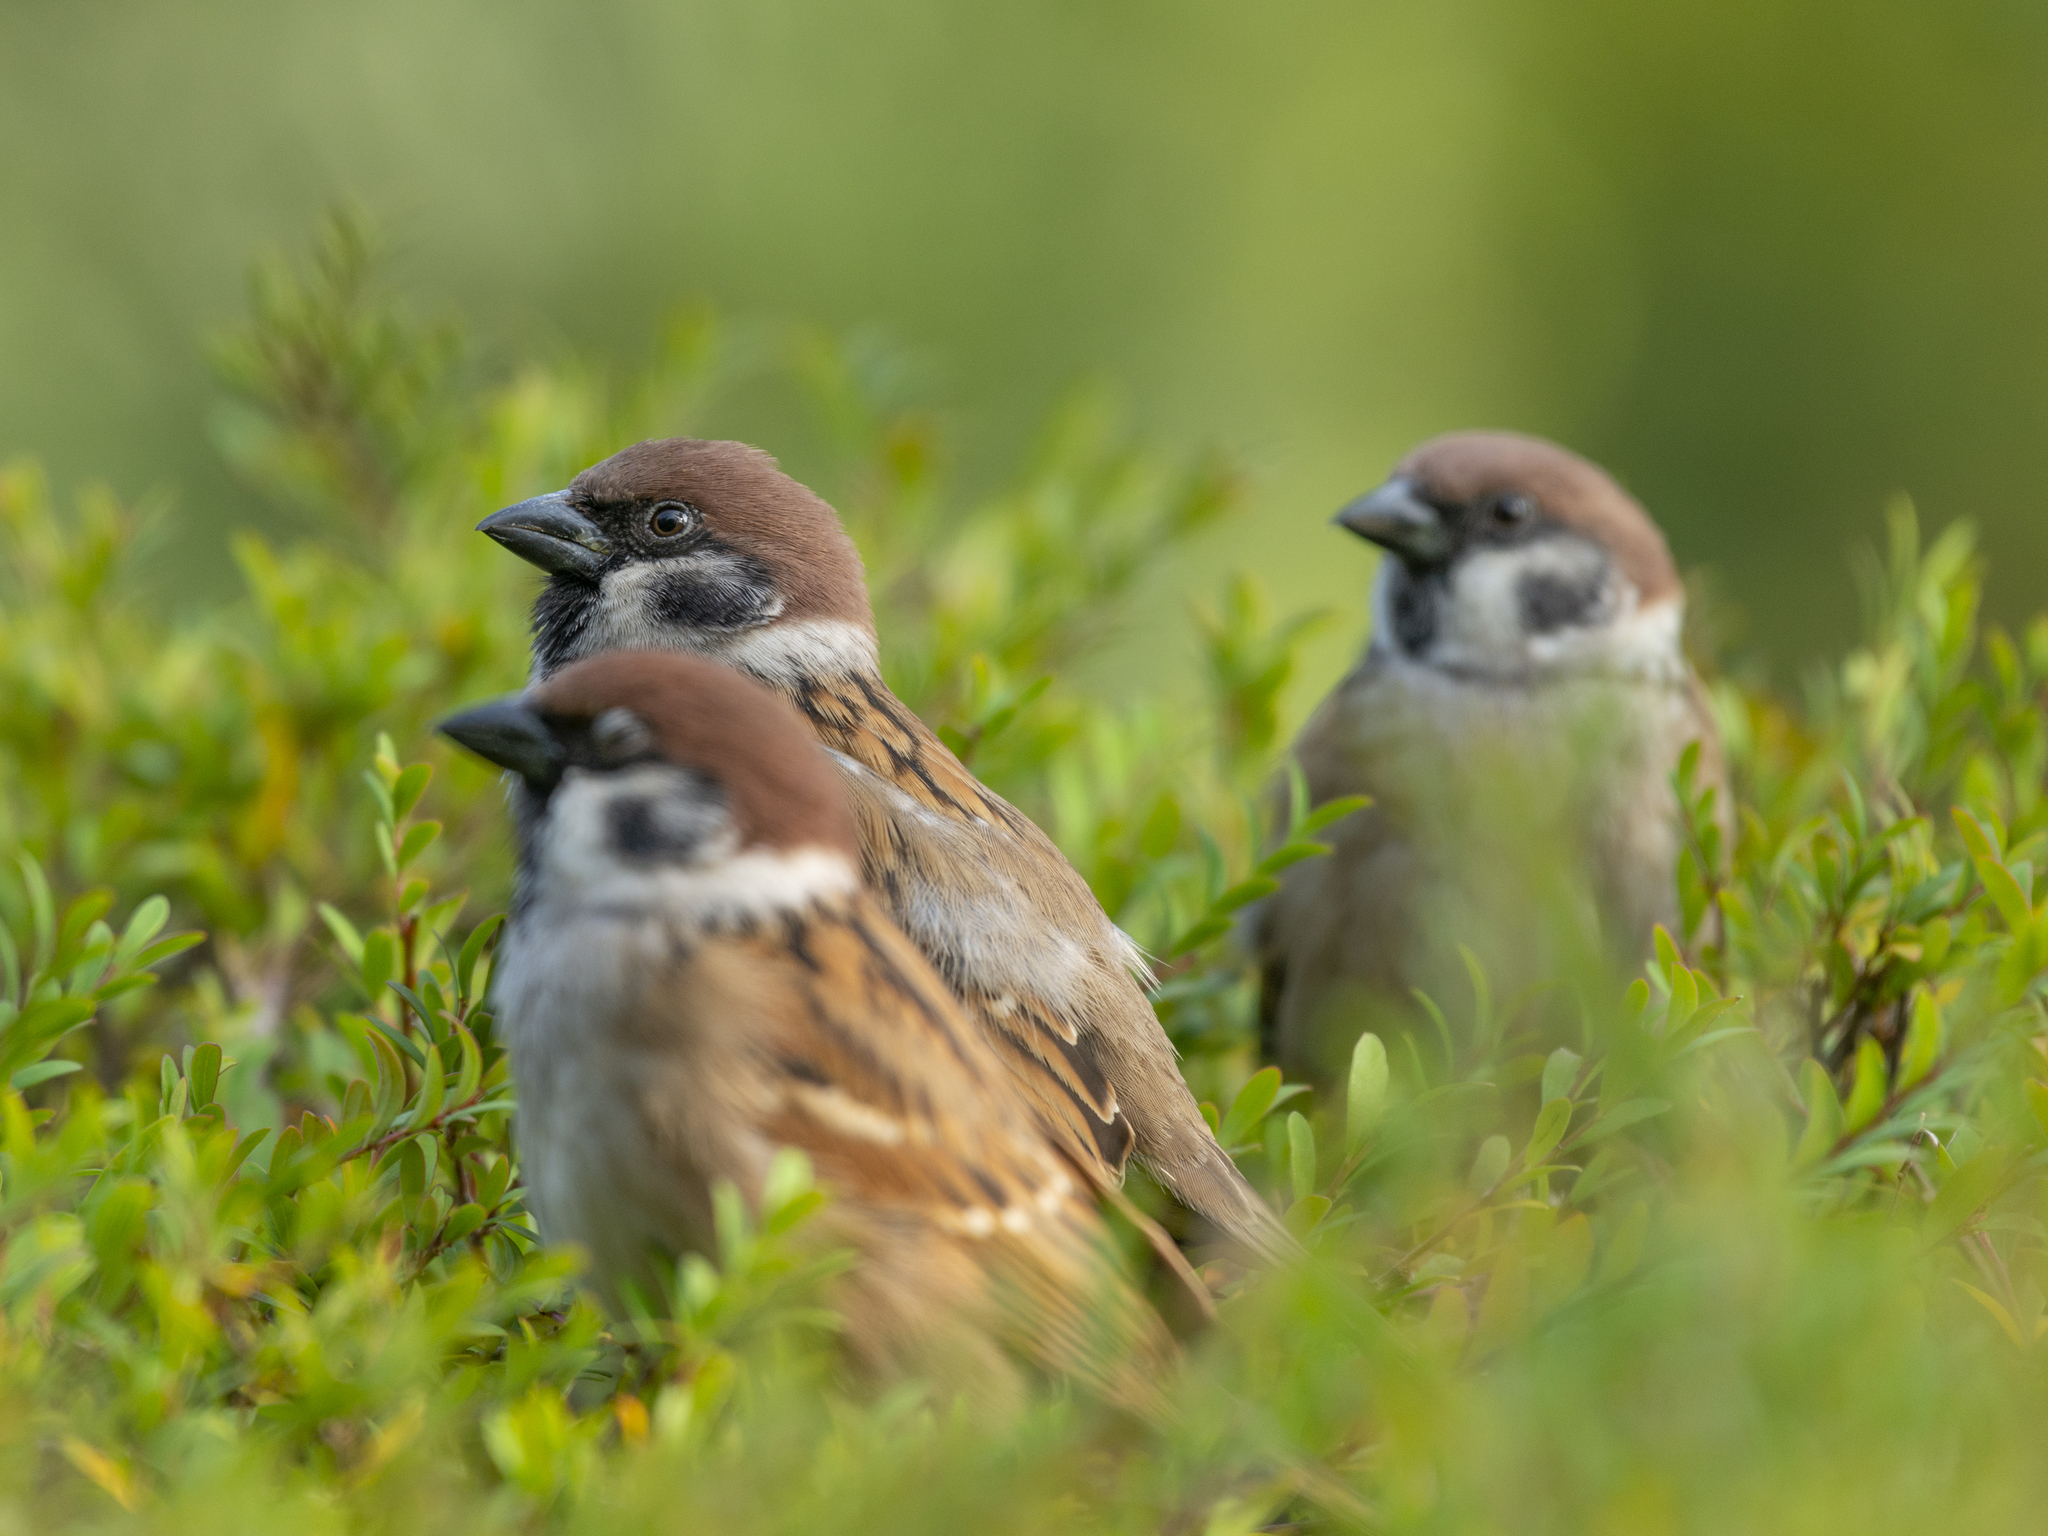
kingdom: Animalia
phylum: Chordata
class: Aves
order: Passeriformes
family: Passeridae
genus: Passer
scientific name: Passer montanus
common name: Eurasian tree sparrow
